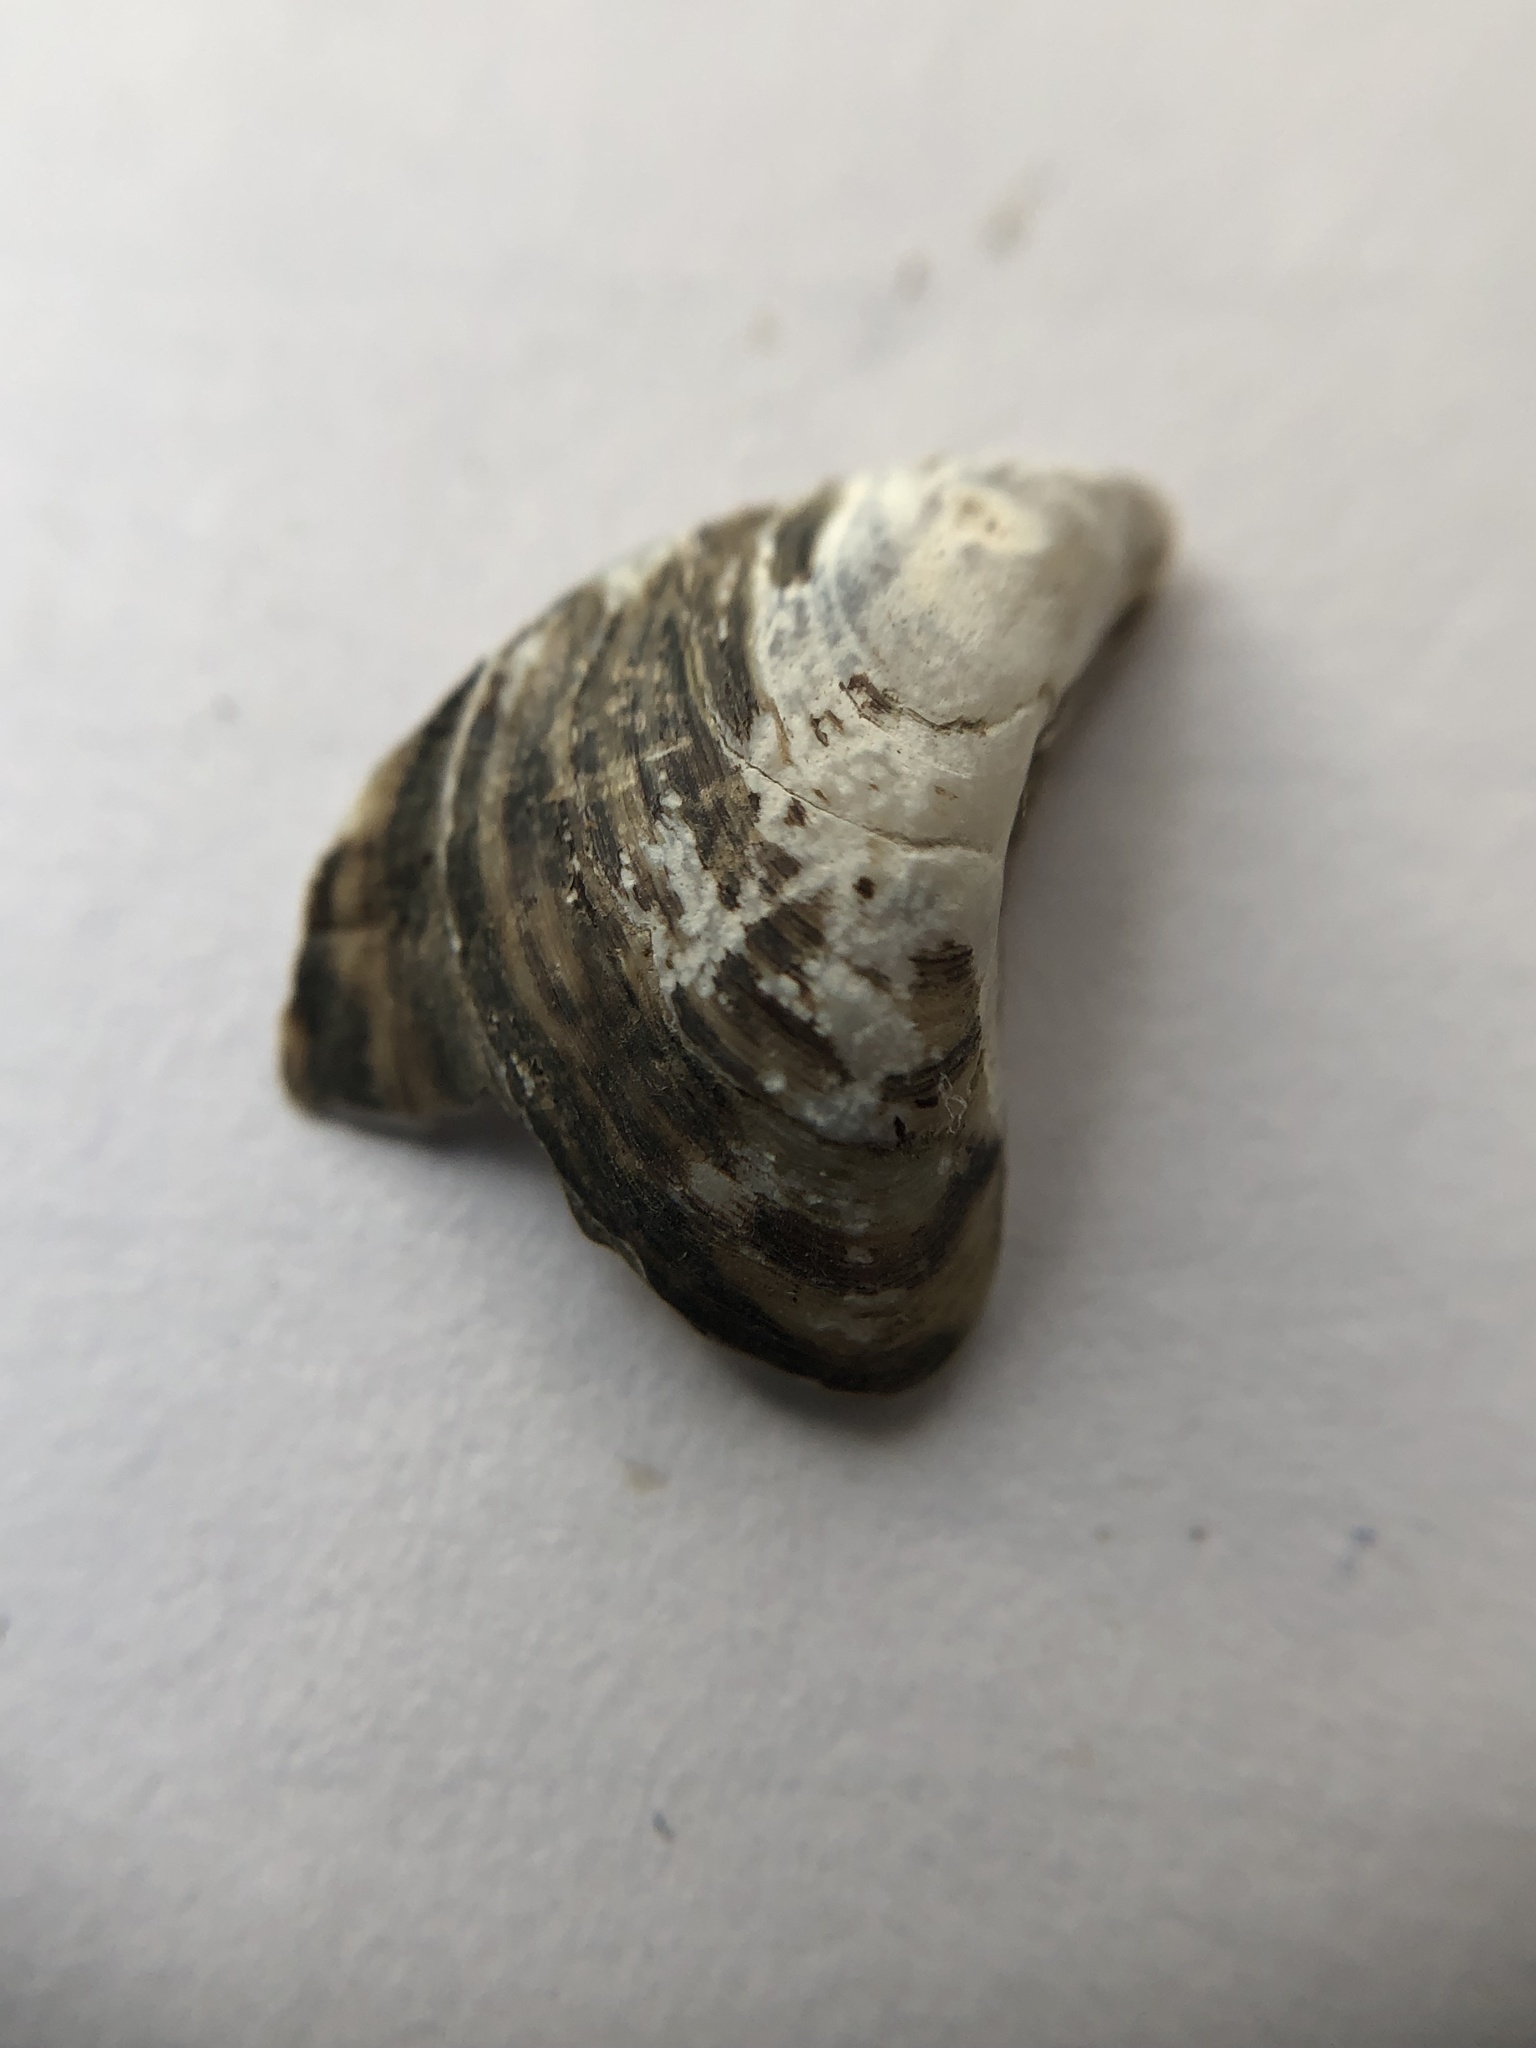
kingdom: Animalia
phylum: Mollusca
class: Bivalvia
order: Myida
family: Dreissenidae
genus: Dreissena
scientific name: Dreissena bugensis
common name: Quagga mussel
